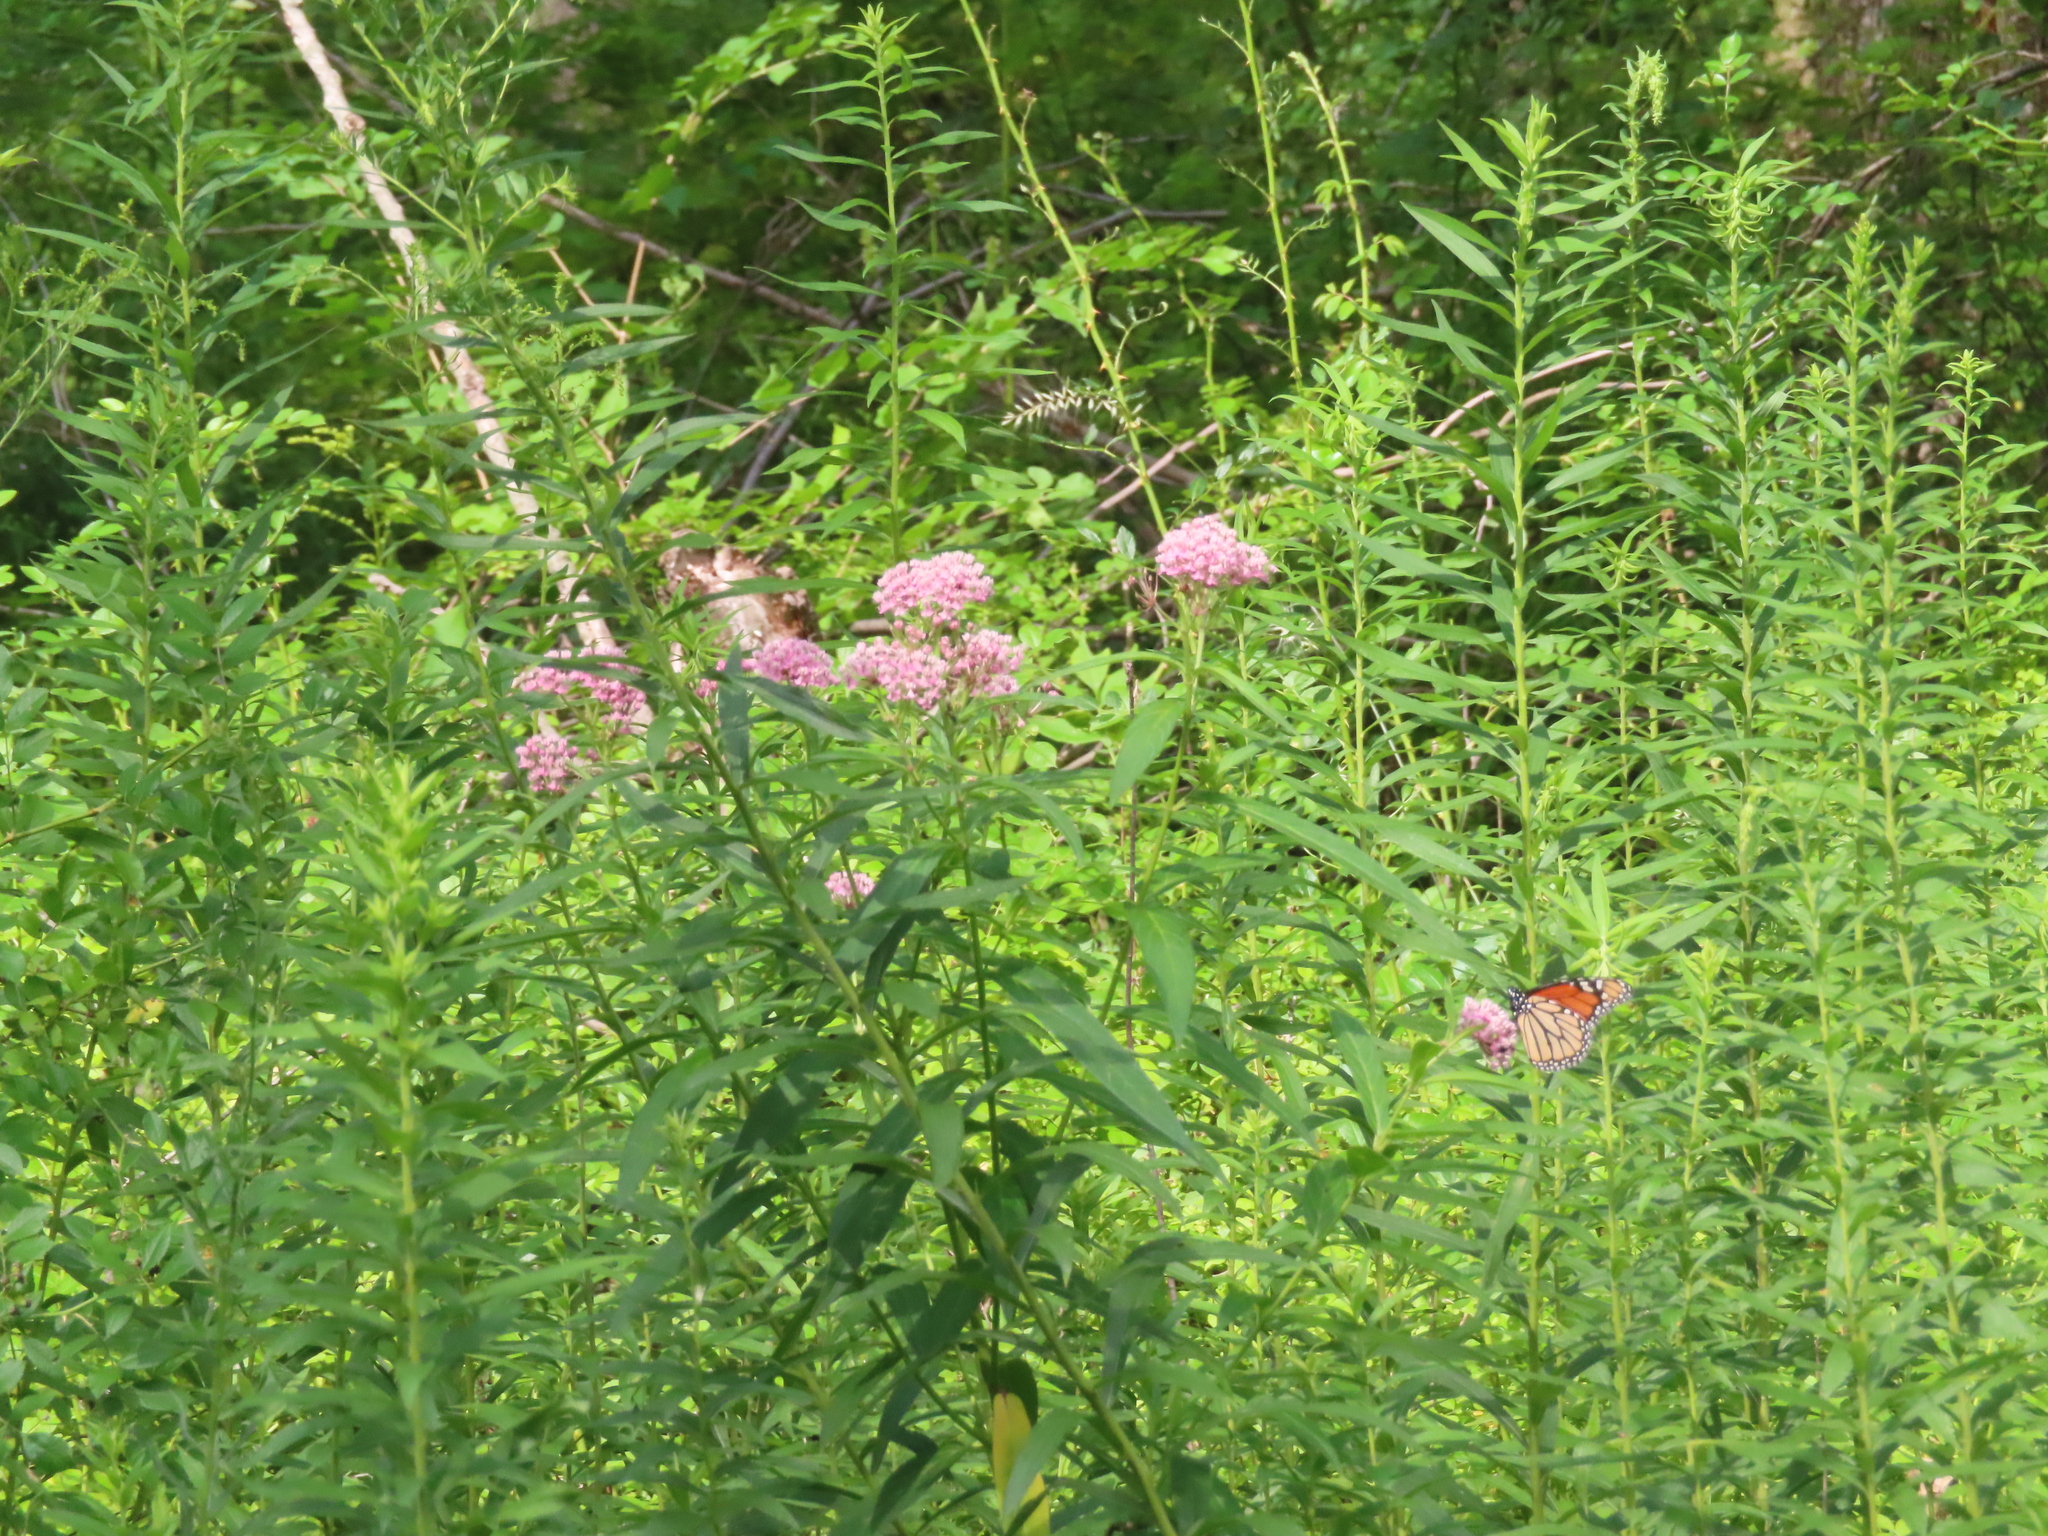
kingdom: Plantae
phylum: Tracheophyta
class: Magnoliopsida
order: Gentianales
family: Apocynaceae
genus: Asclepias
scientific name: Asclepias incarnata
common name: Swamp milkweed
